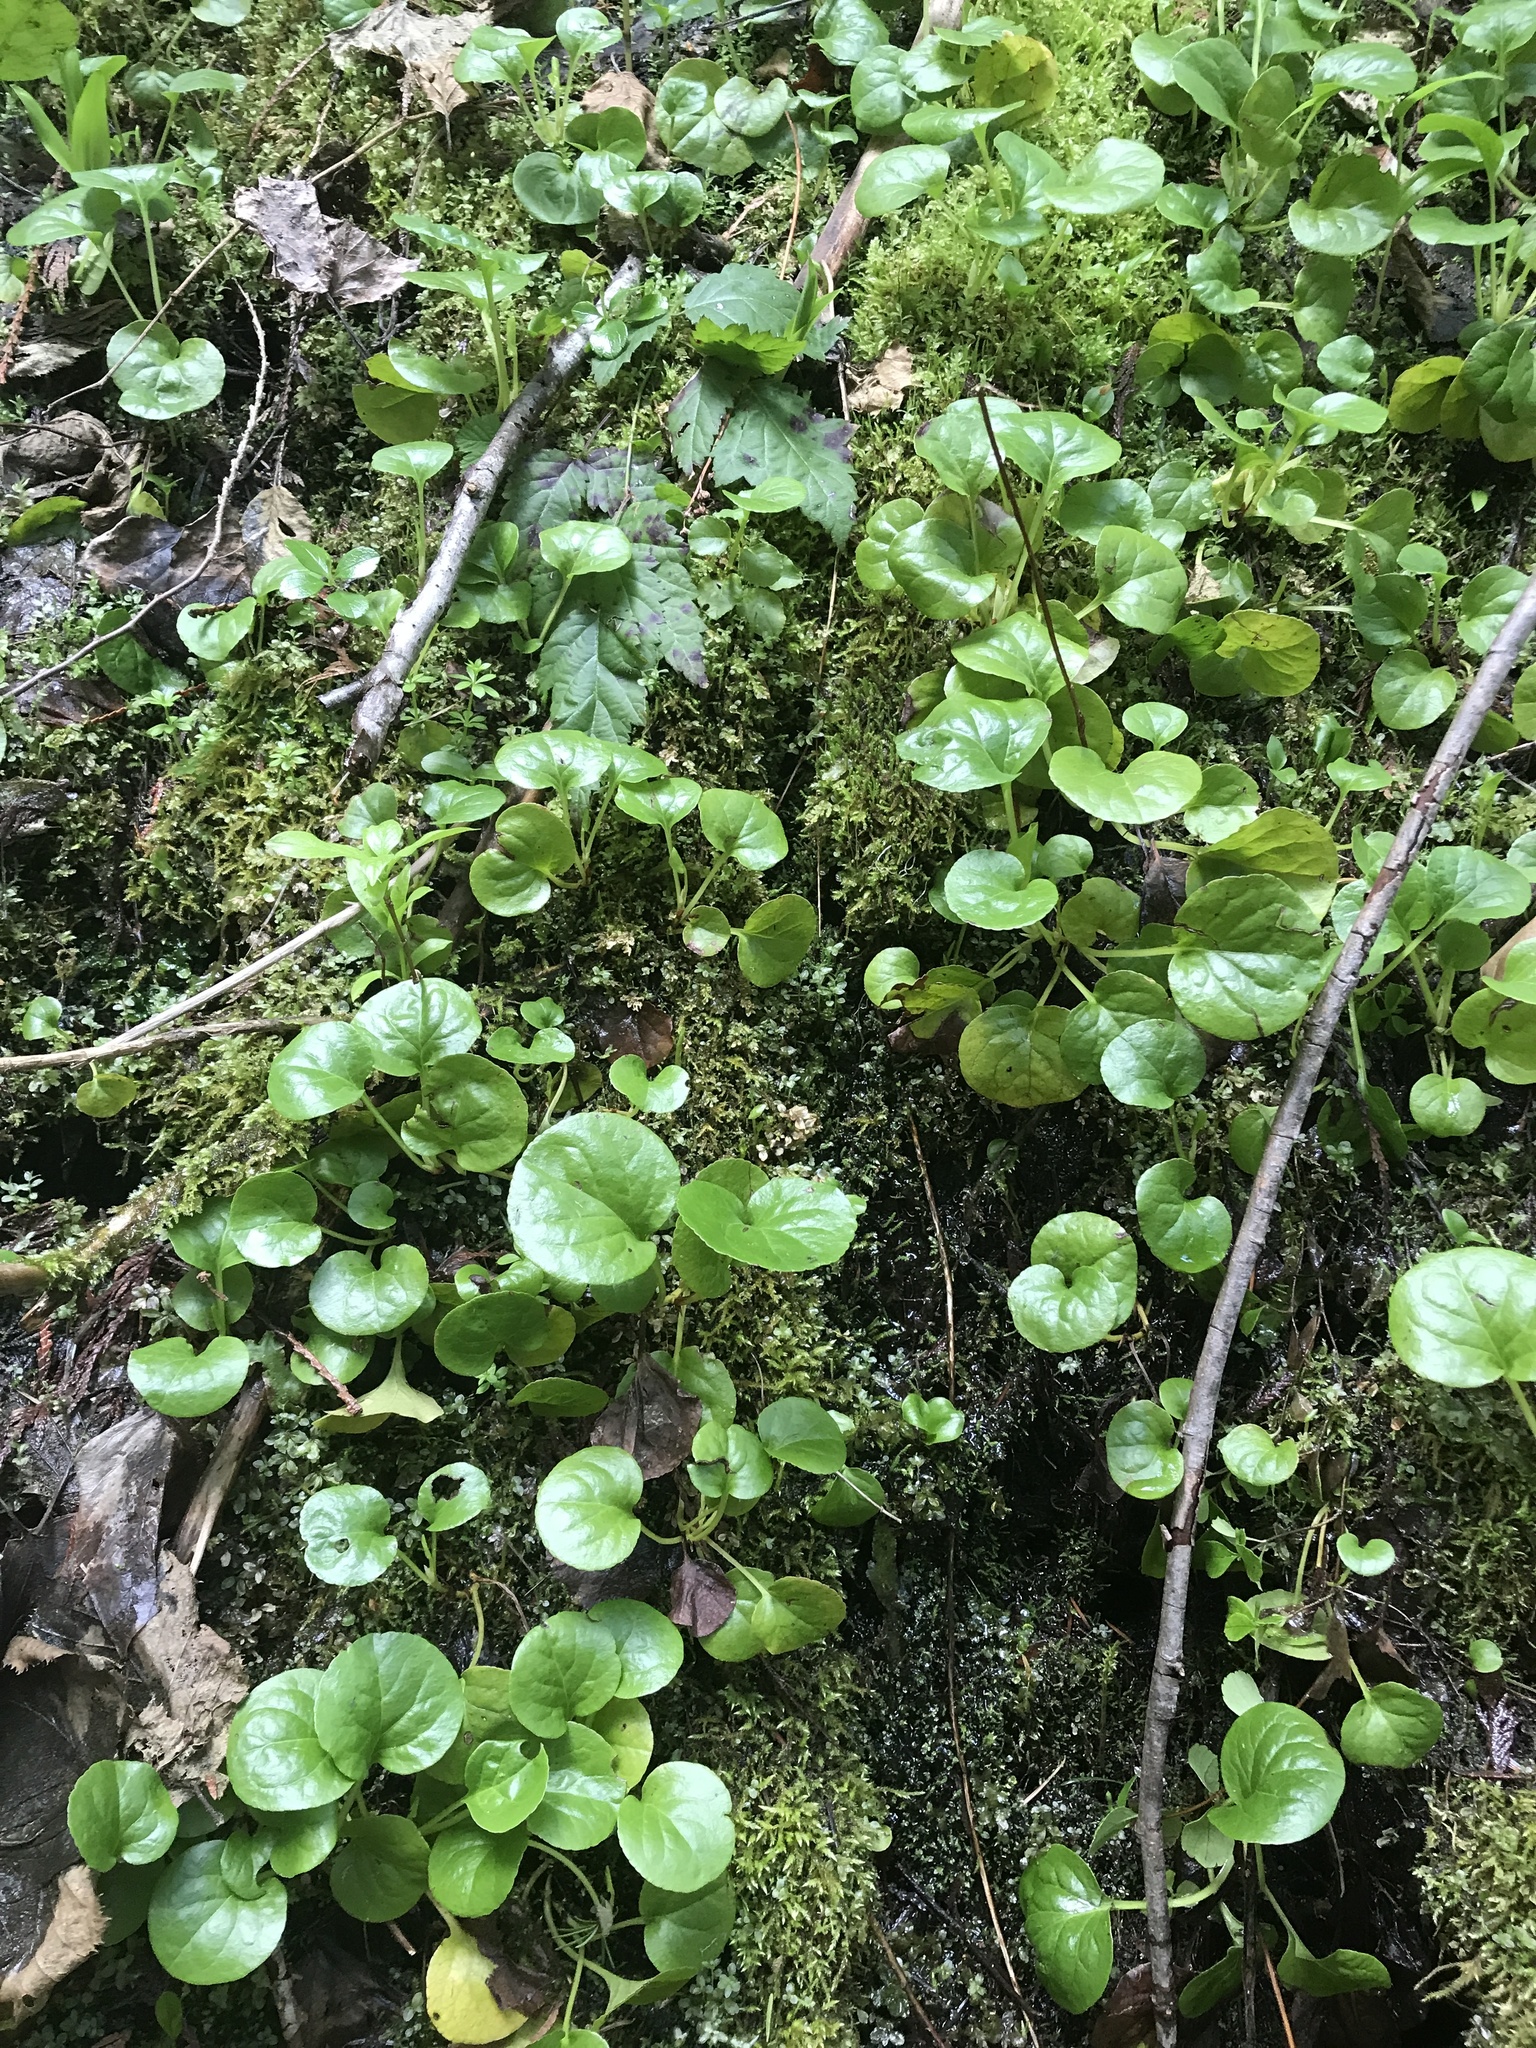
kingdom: Plantae
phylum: Tracheophyta
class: Magnoliopsida
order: Ericales
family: Ericaceae
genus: Pyrola
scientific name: Pyrola asarifolia
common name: Bog wintergreen
